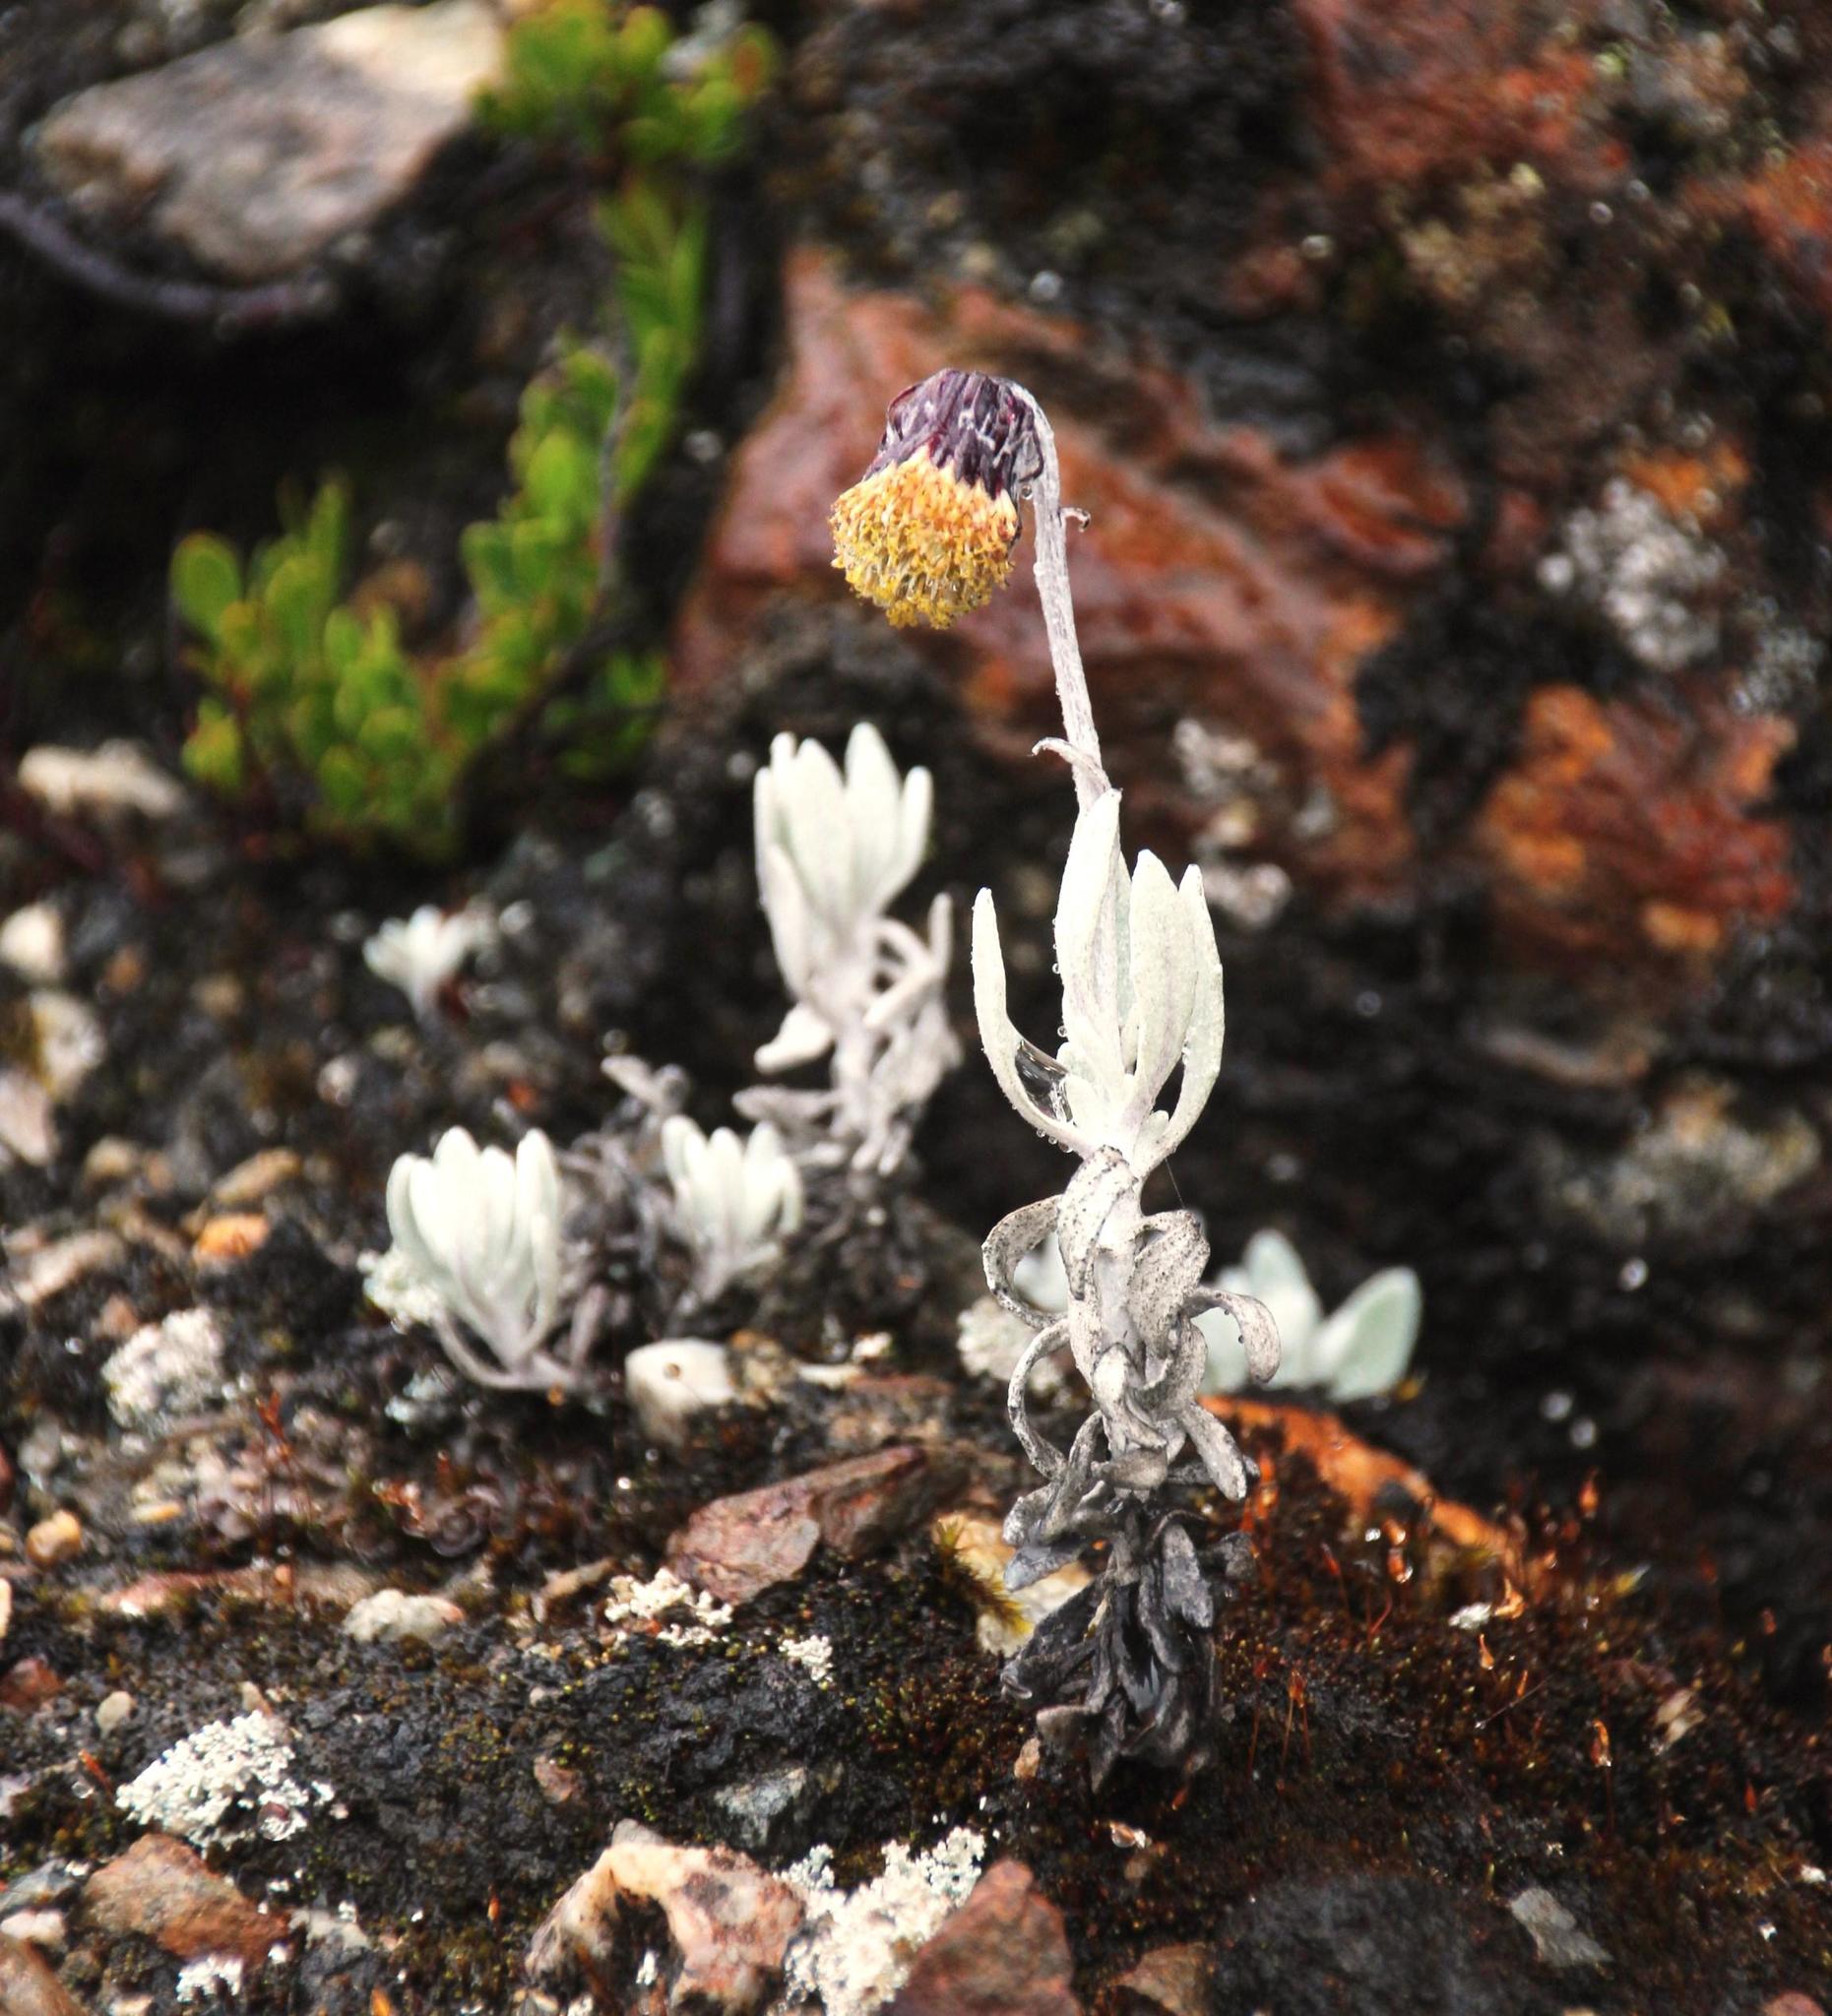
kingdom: Plantae
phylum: Tracheophyta
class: Magnoliopsida
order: Asterales
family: Asteraceae
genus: Culcitium
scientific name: Culcitium humile
